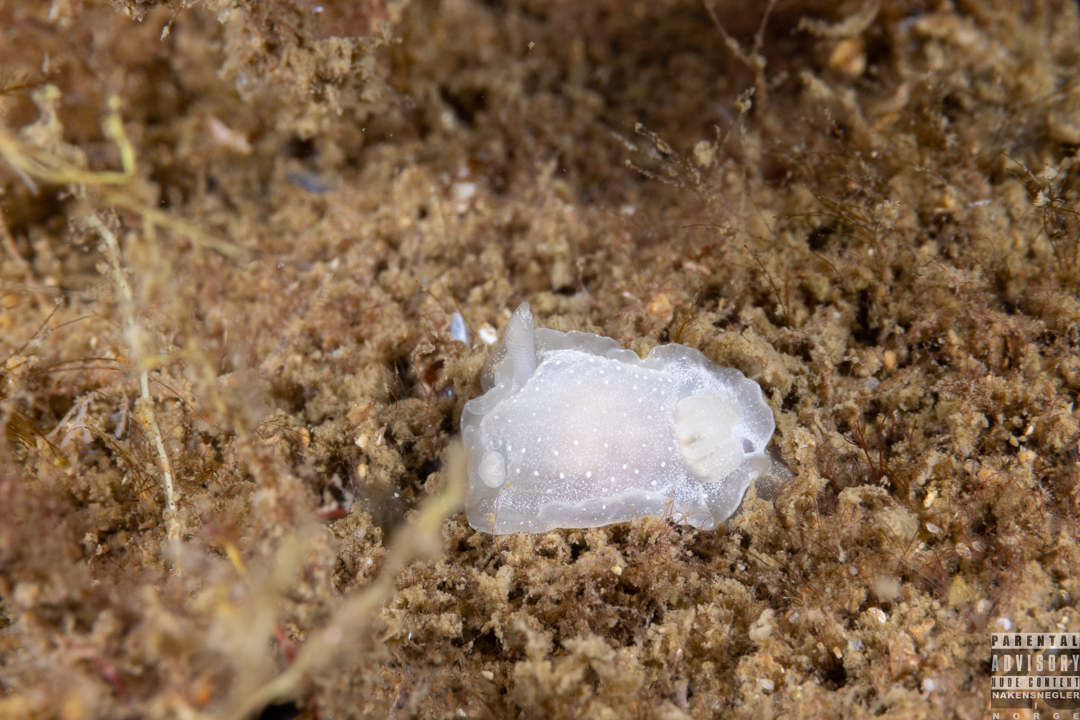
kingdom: Animalia
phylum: Mollusca
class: Gastropoda
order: Nudibranchia
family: Goniodorididae
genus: Okenia
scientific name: Okenia
